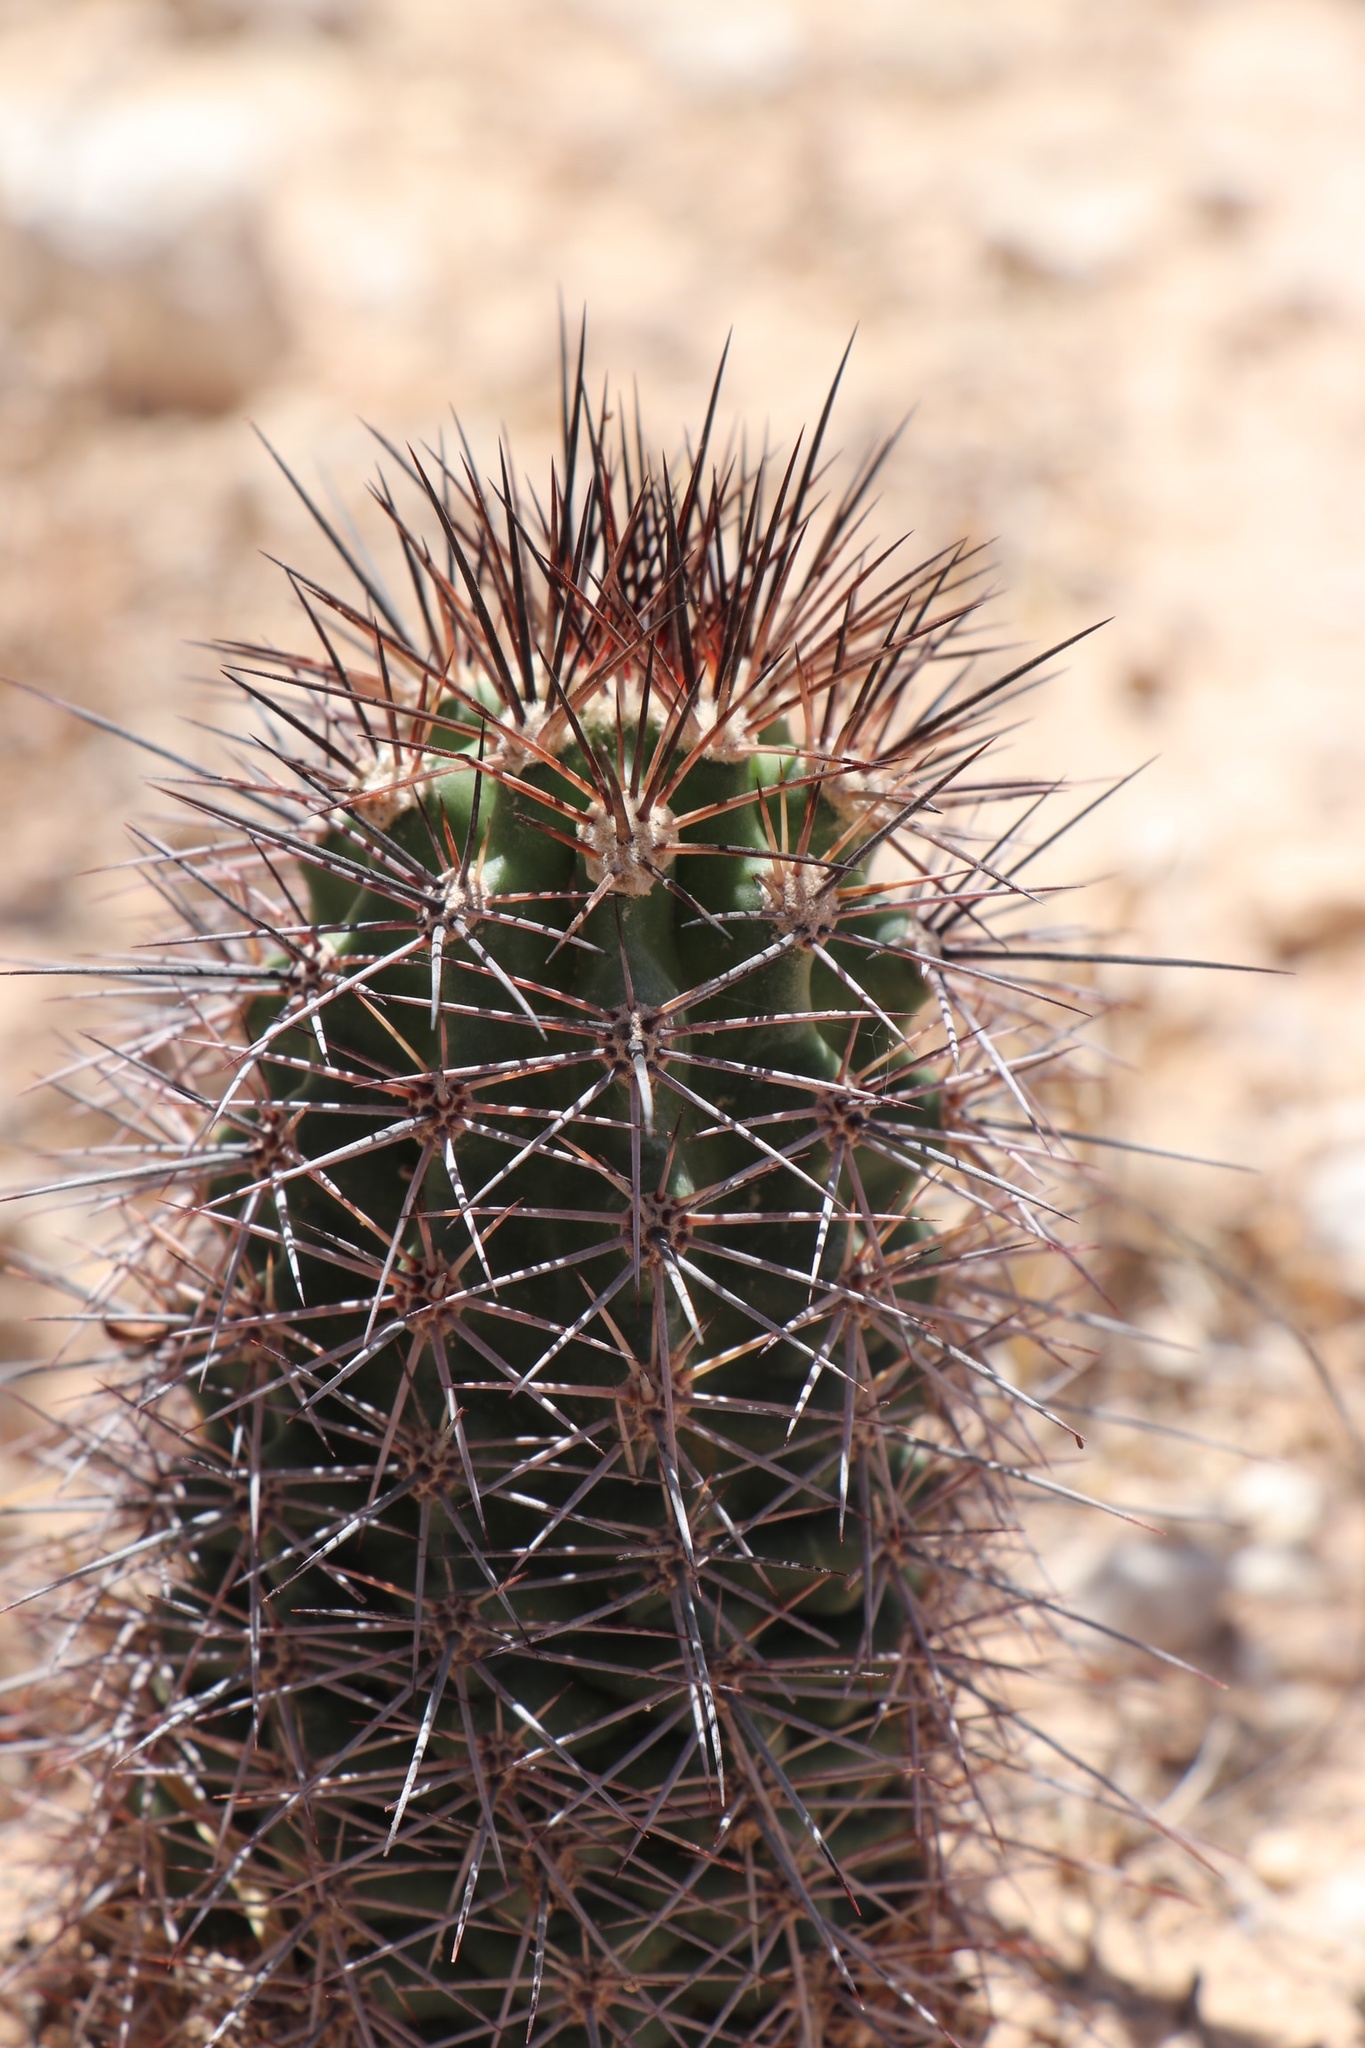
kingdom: Plantae
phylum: Tracheophyta
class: Magnoliopsida
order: Caryophyllales
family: Cactaceae
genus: Echinocereus
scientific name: Echinocereus roetteri
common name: Lloyd's hedgehog cactus
